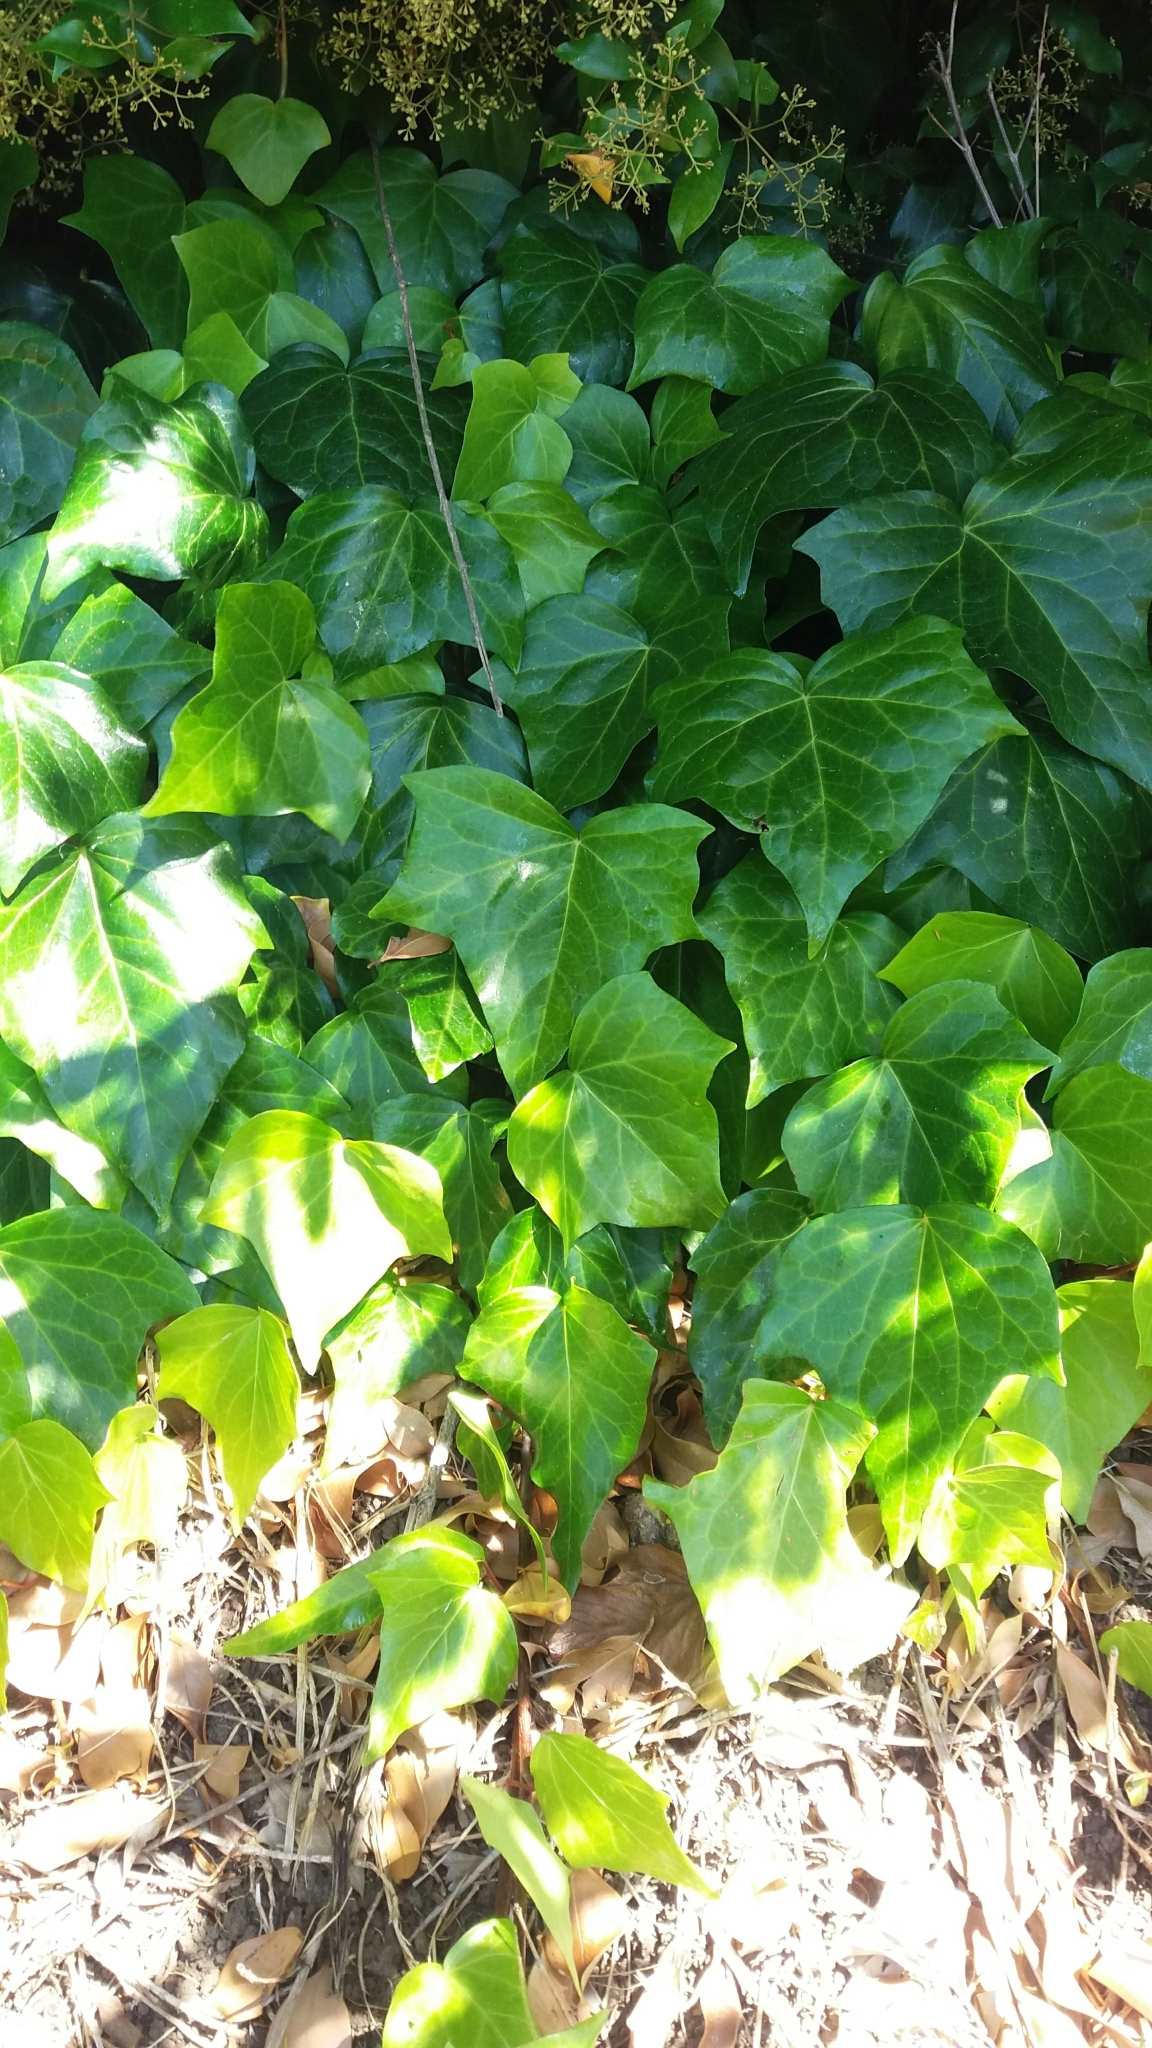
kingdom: Plantae
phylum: Tracheophyta
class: Magnoliopsida
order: Apiales
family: Araliaceae
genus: Hedera
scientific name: Hedera helix
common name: Ivy
